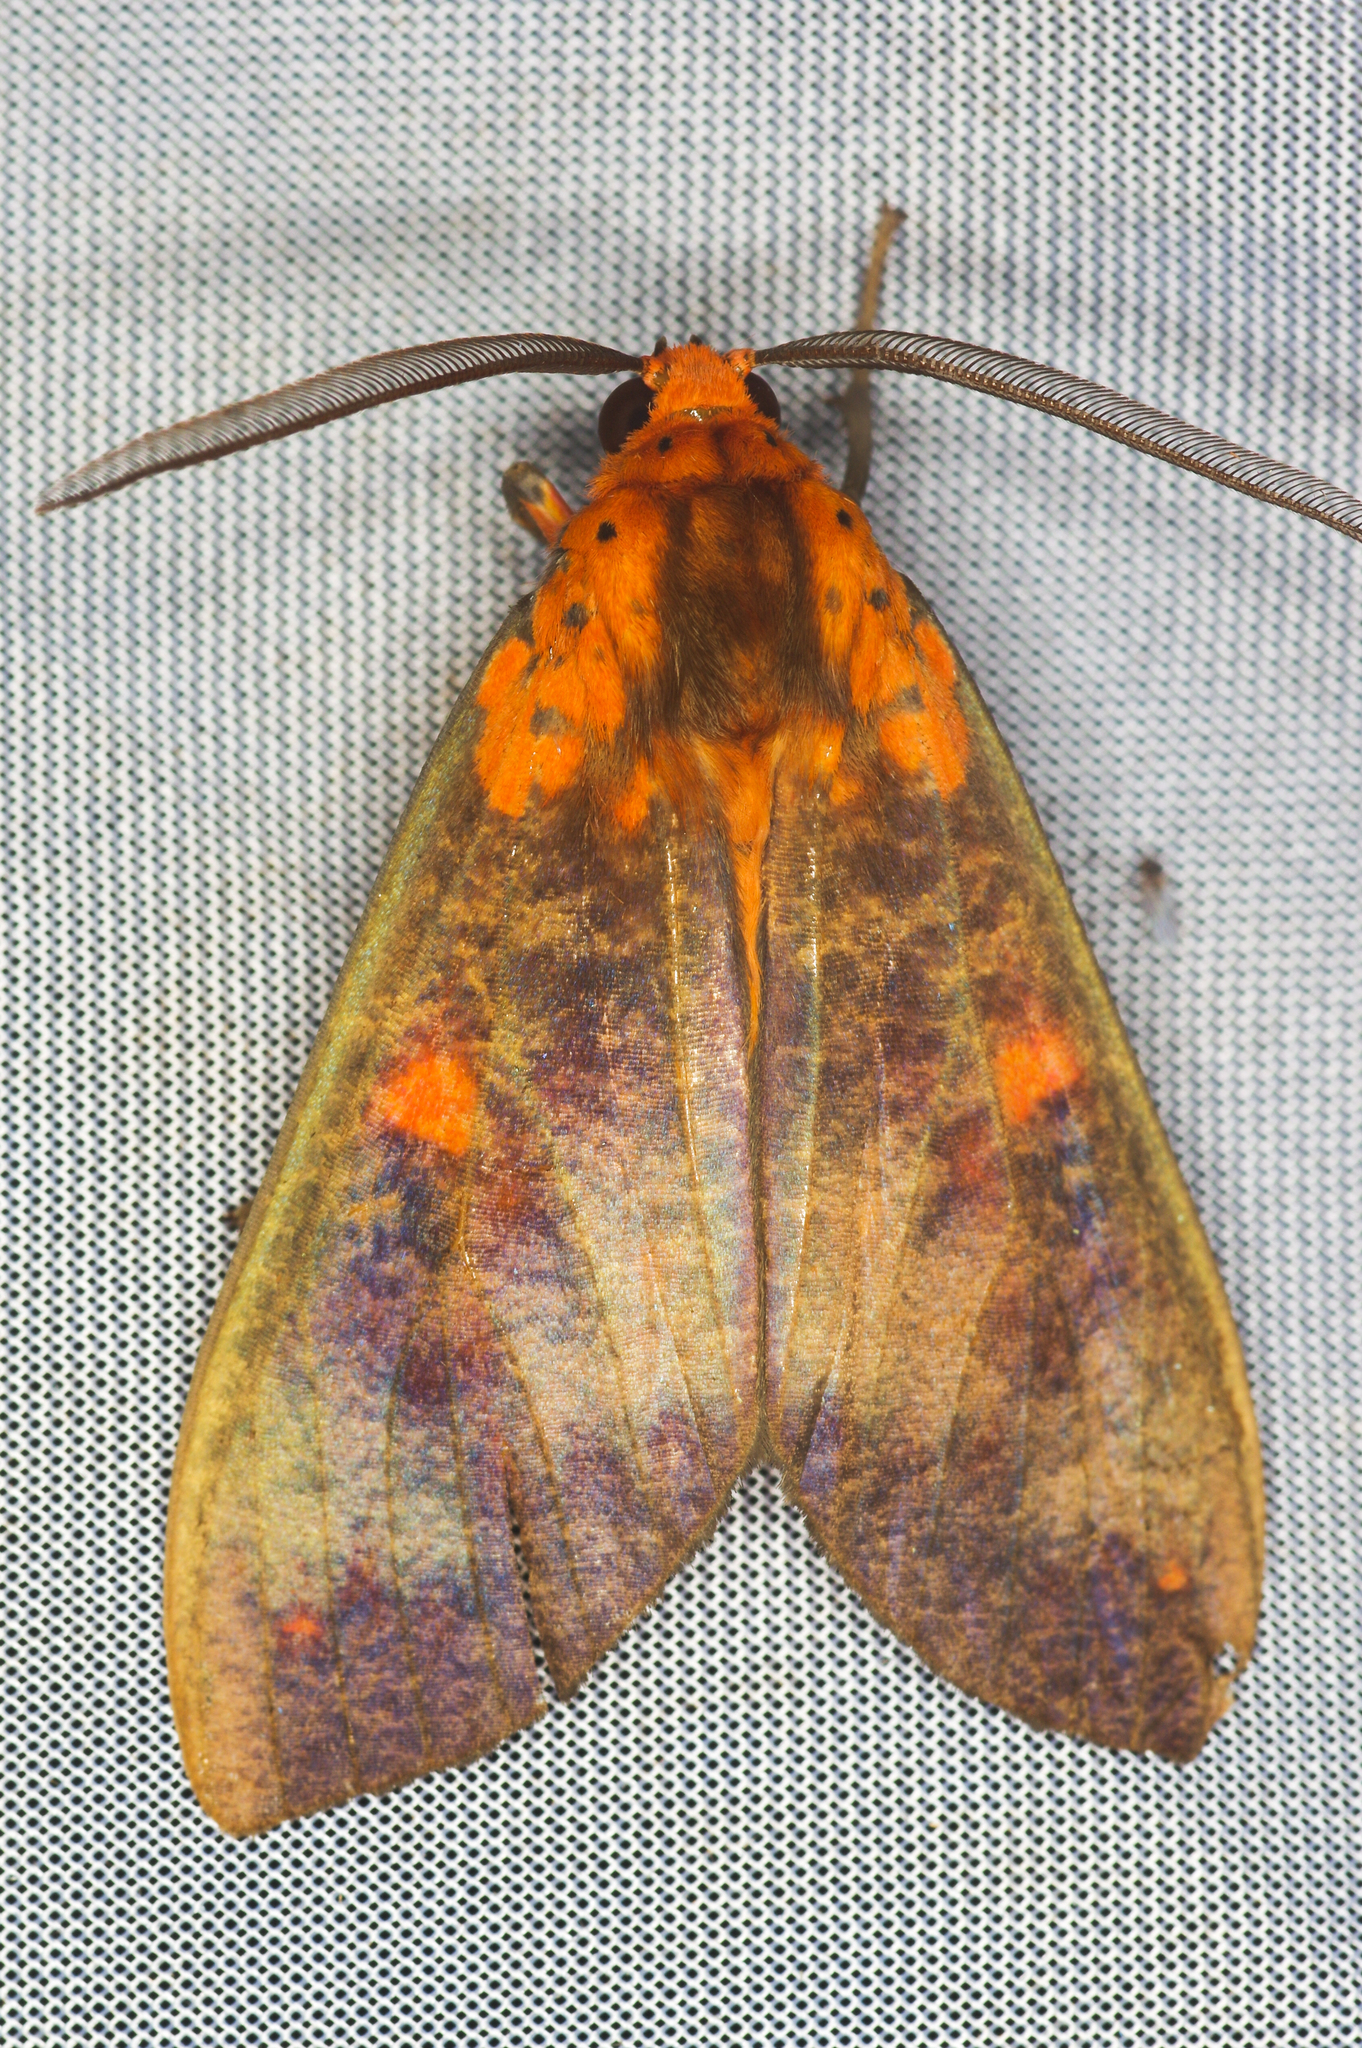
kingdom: Animalia
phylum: Arthropoda
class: Insecta
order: Lepidoptera
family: Erebidae
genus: Ammalo
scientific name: Ammalo helops
